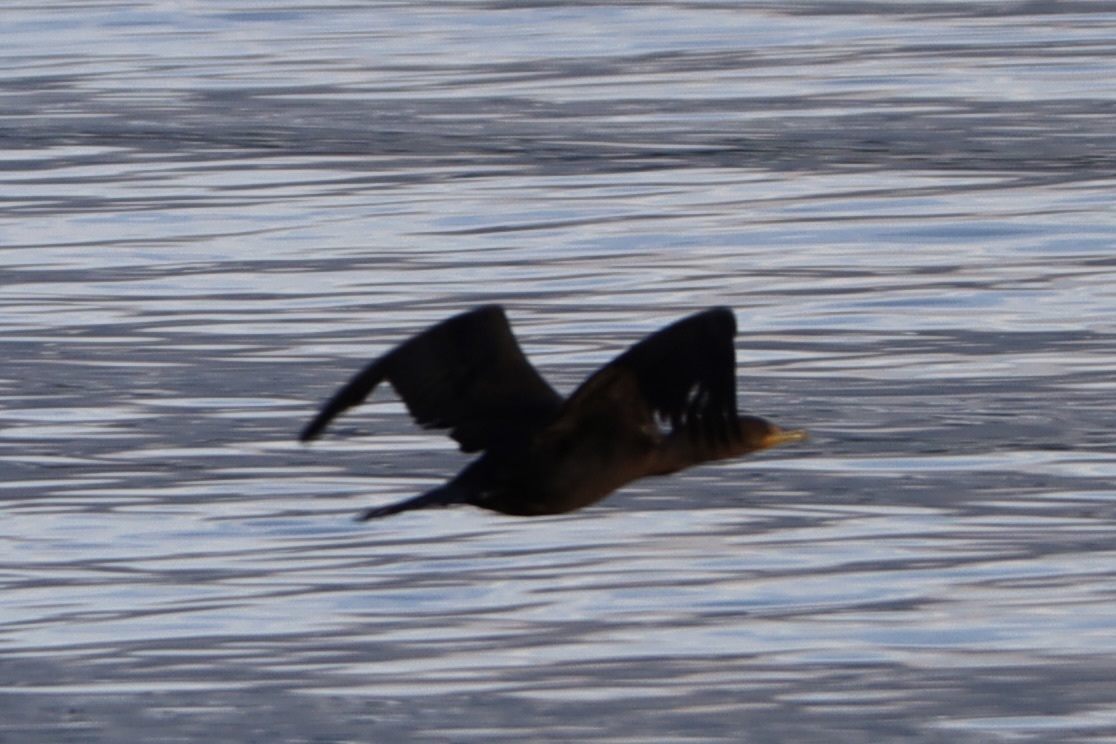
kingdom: Animalia
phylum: Chordata
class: Aves
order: Suliformes
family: Phalacrocoracidae
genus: Phalacrocorax
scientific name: Phalacrocorax auritus
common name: Double-crested cormorant
